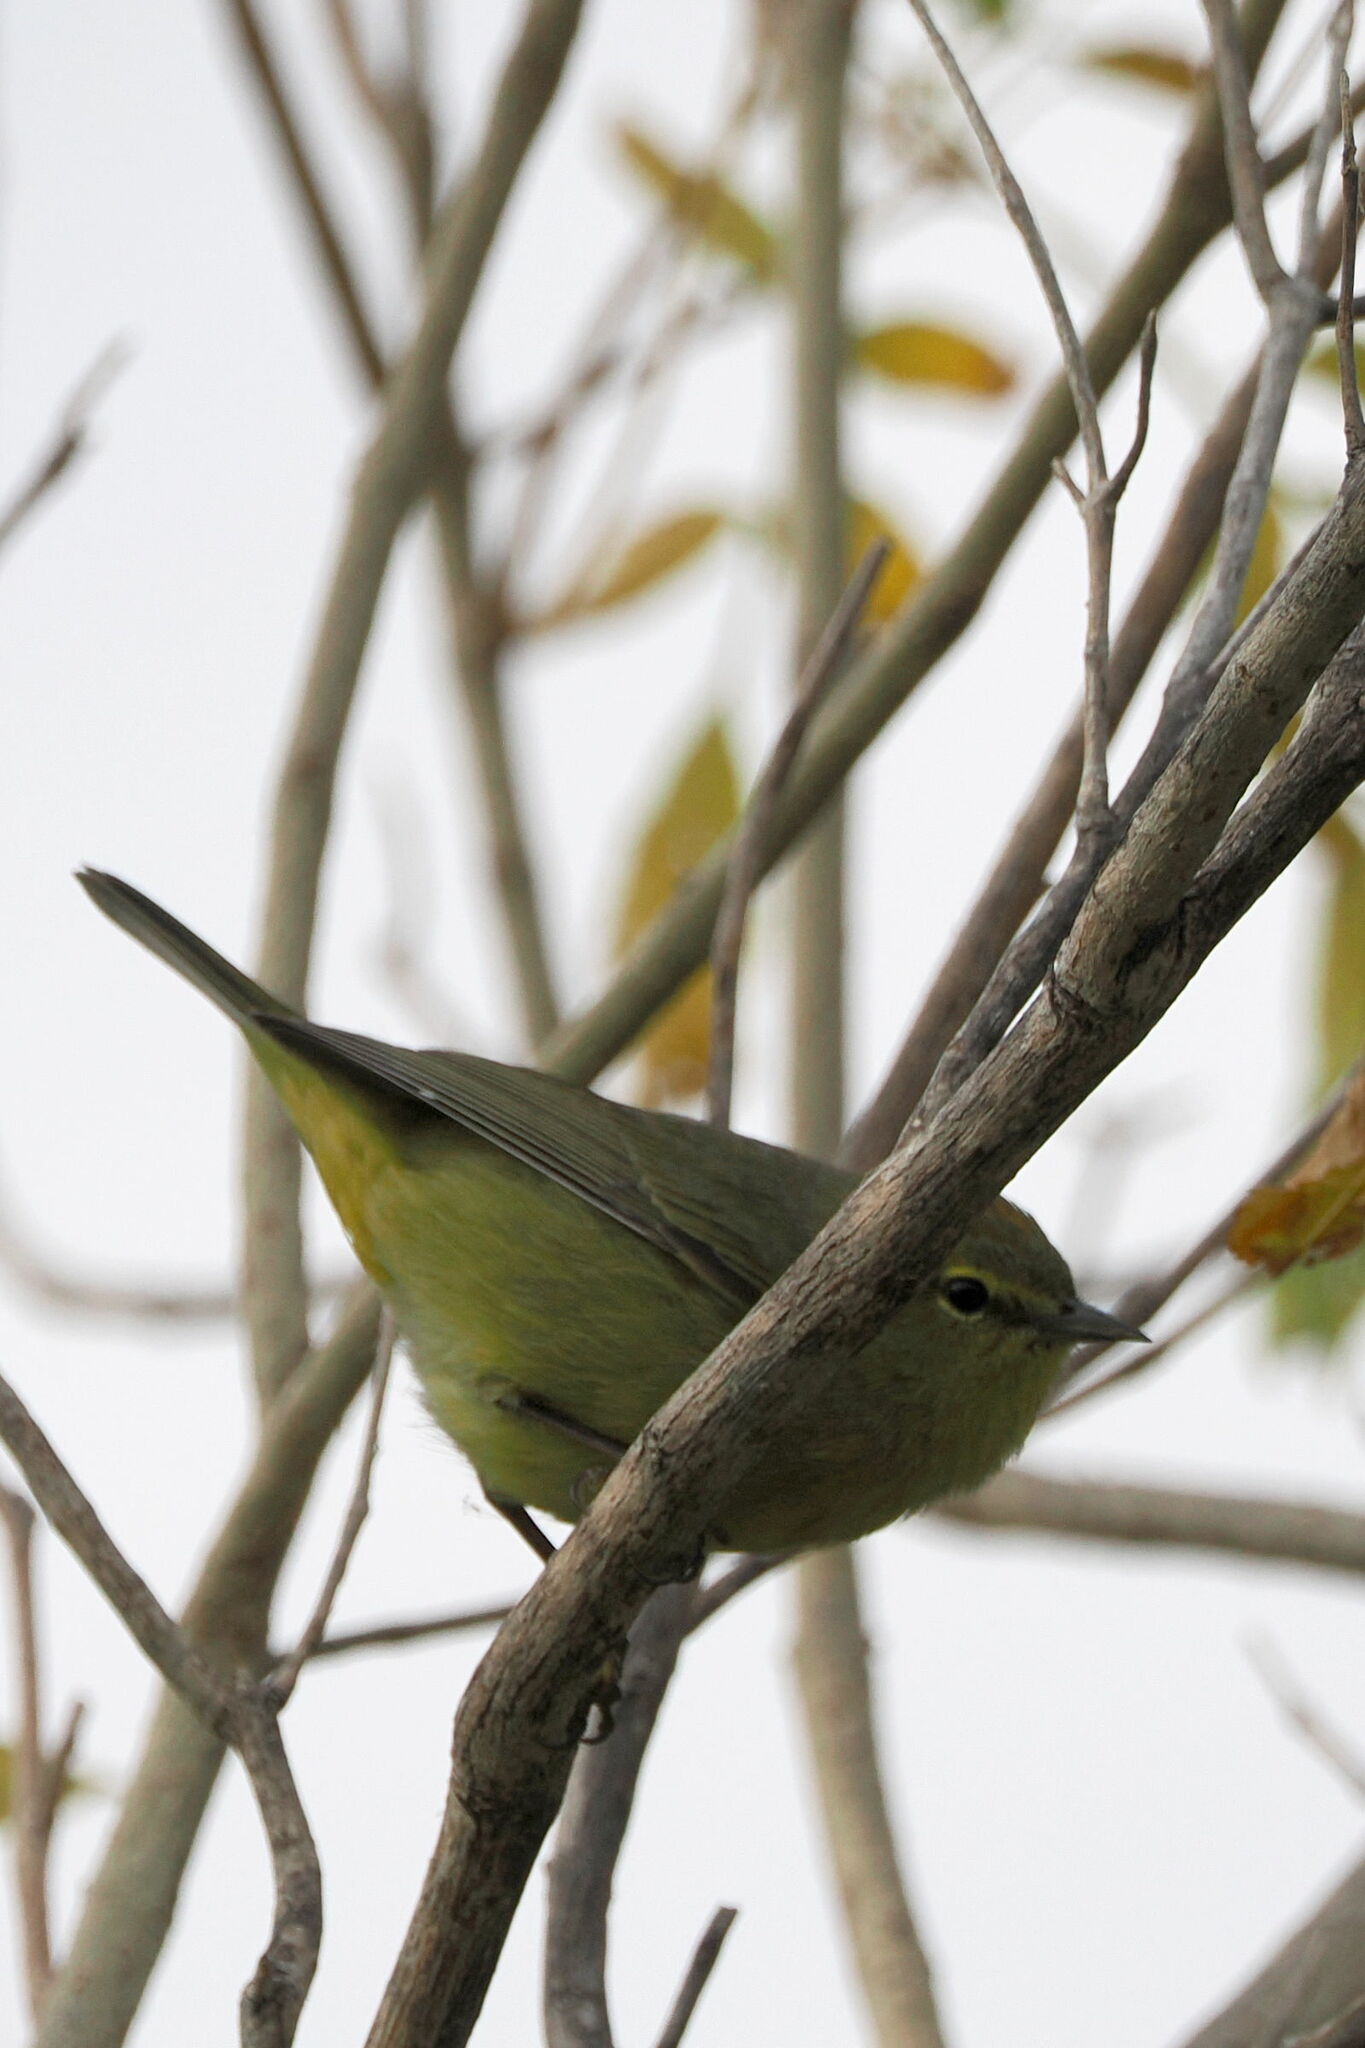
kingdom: Animalia
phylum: Chordata
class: Aves
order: Passeriformes
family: Parulidae
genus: Leiothlypis
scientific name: Leiothlypis celata
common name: Orange-crowned warbler
